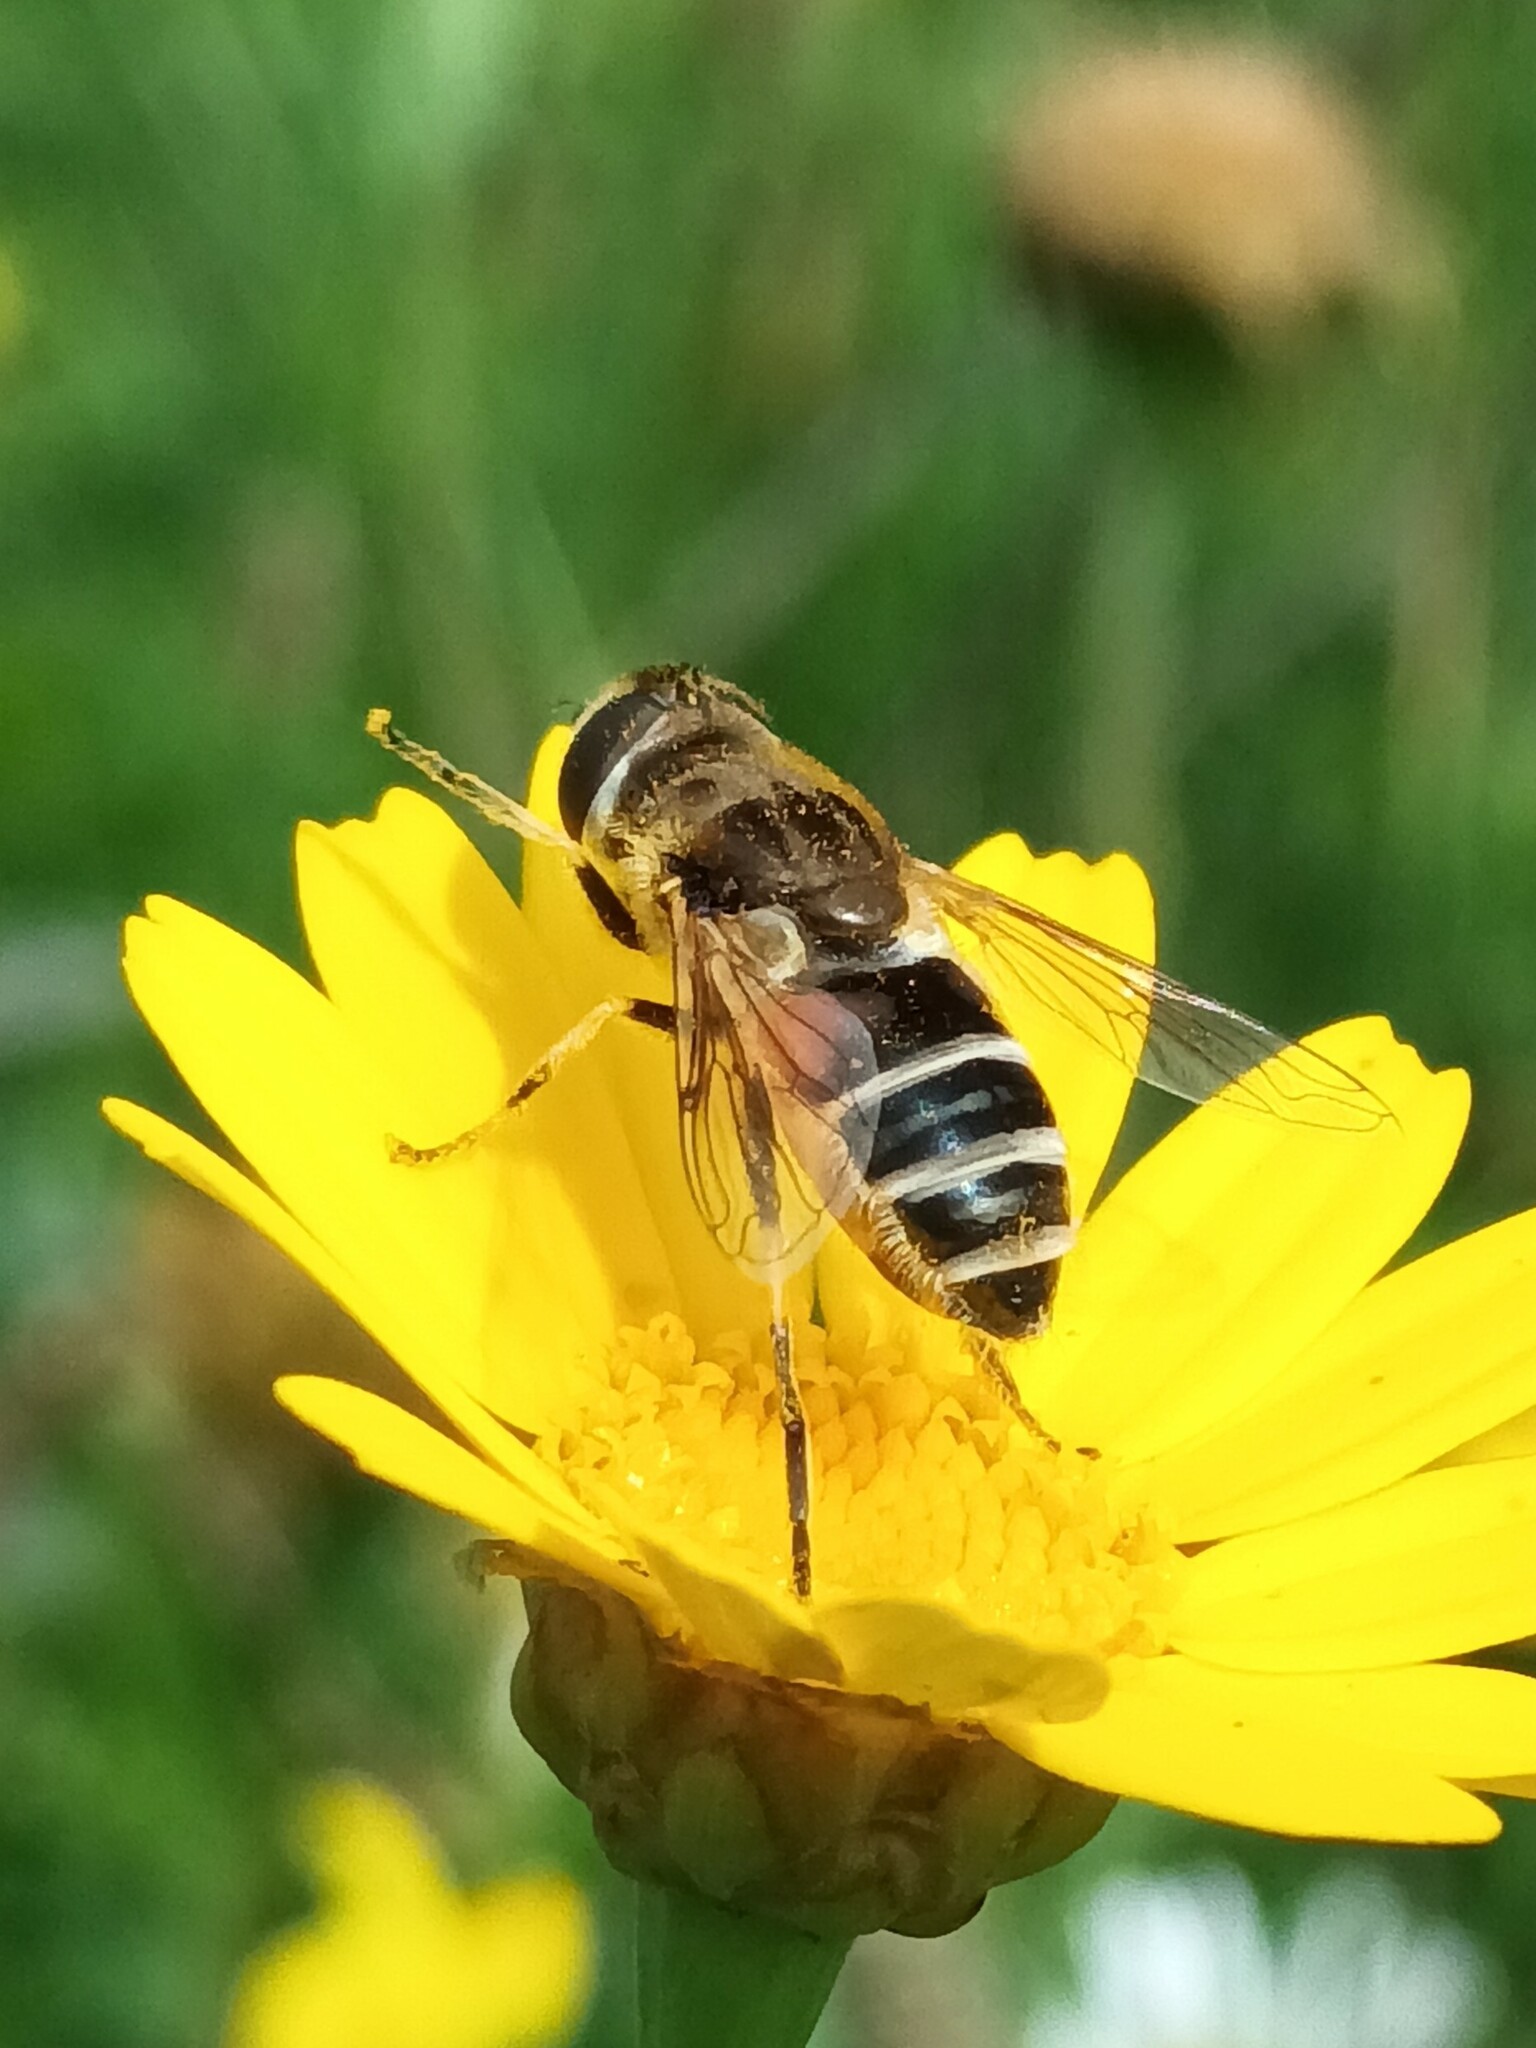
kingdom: Animalia
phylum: Arthropoda
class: Insecta
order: Diptera
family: Syrphidae
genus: Eristalis
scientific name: Eristalis arbustorum
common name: Hover fly
